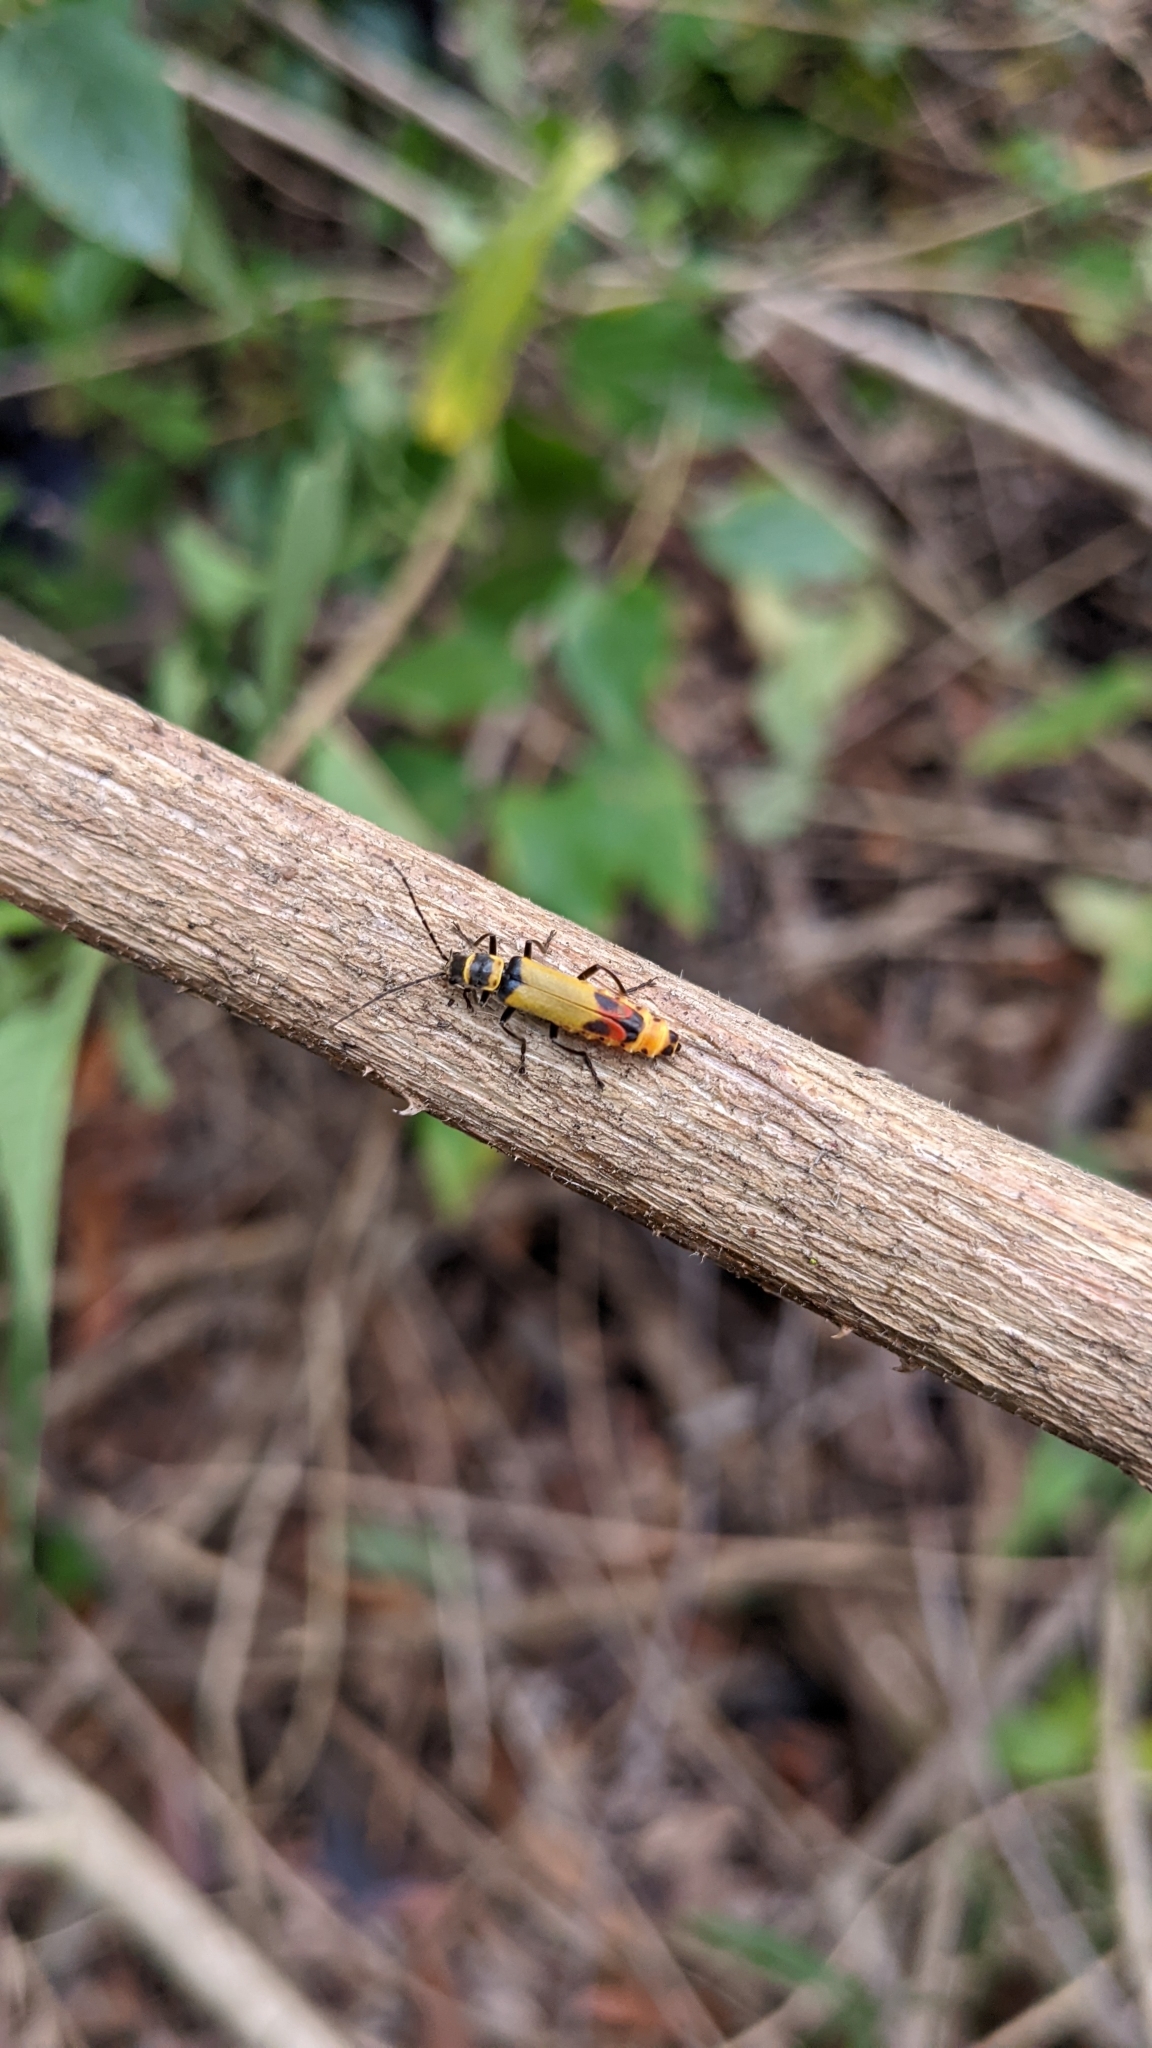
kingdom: Animalia
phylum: Arthropoda
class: Insecta
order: Coleoptera
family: Cantharidae
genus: Chauliognathus
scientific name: Chauliognathus
